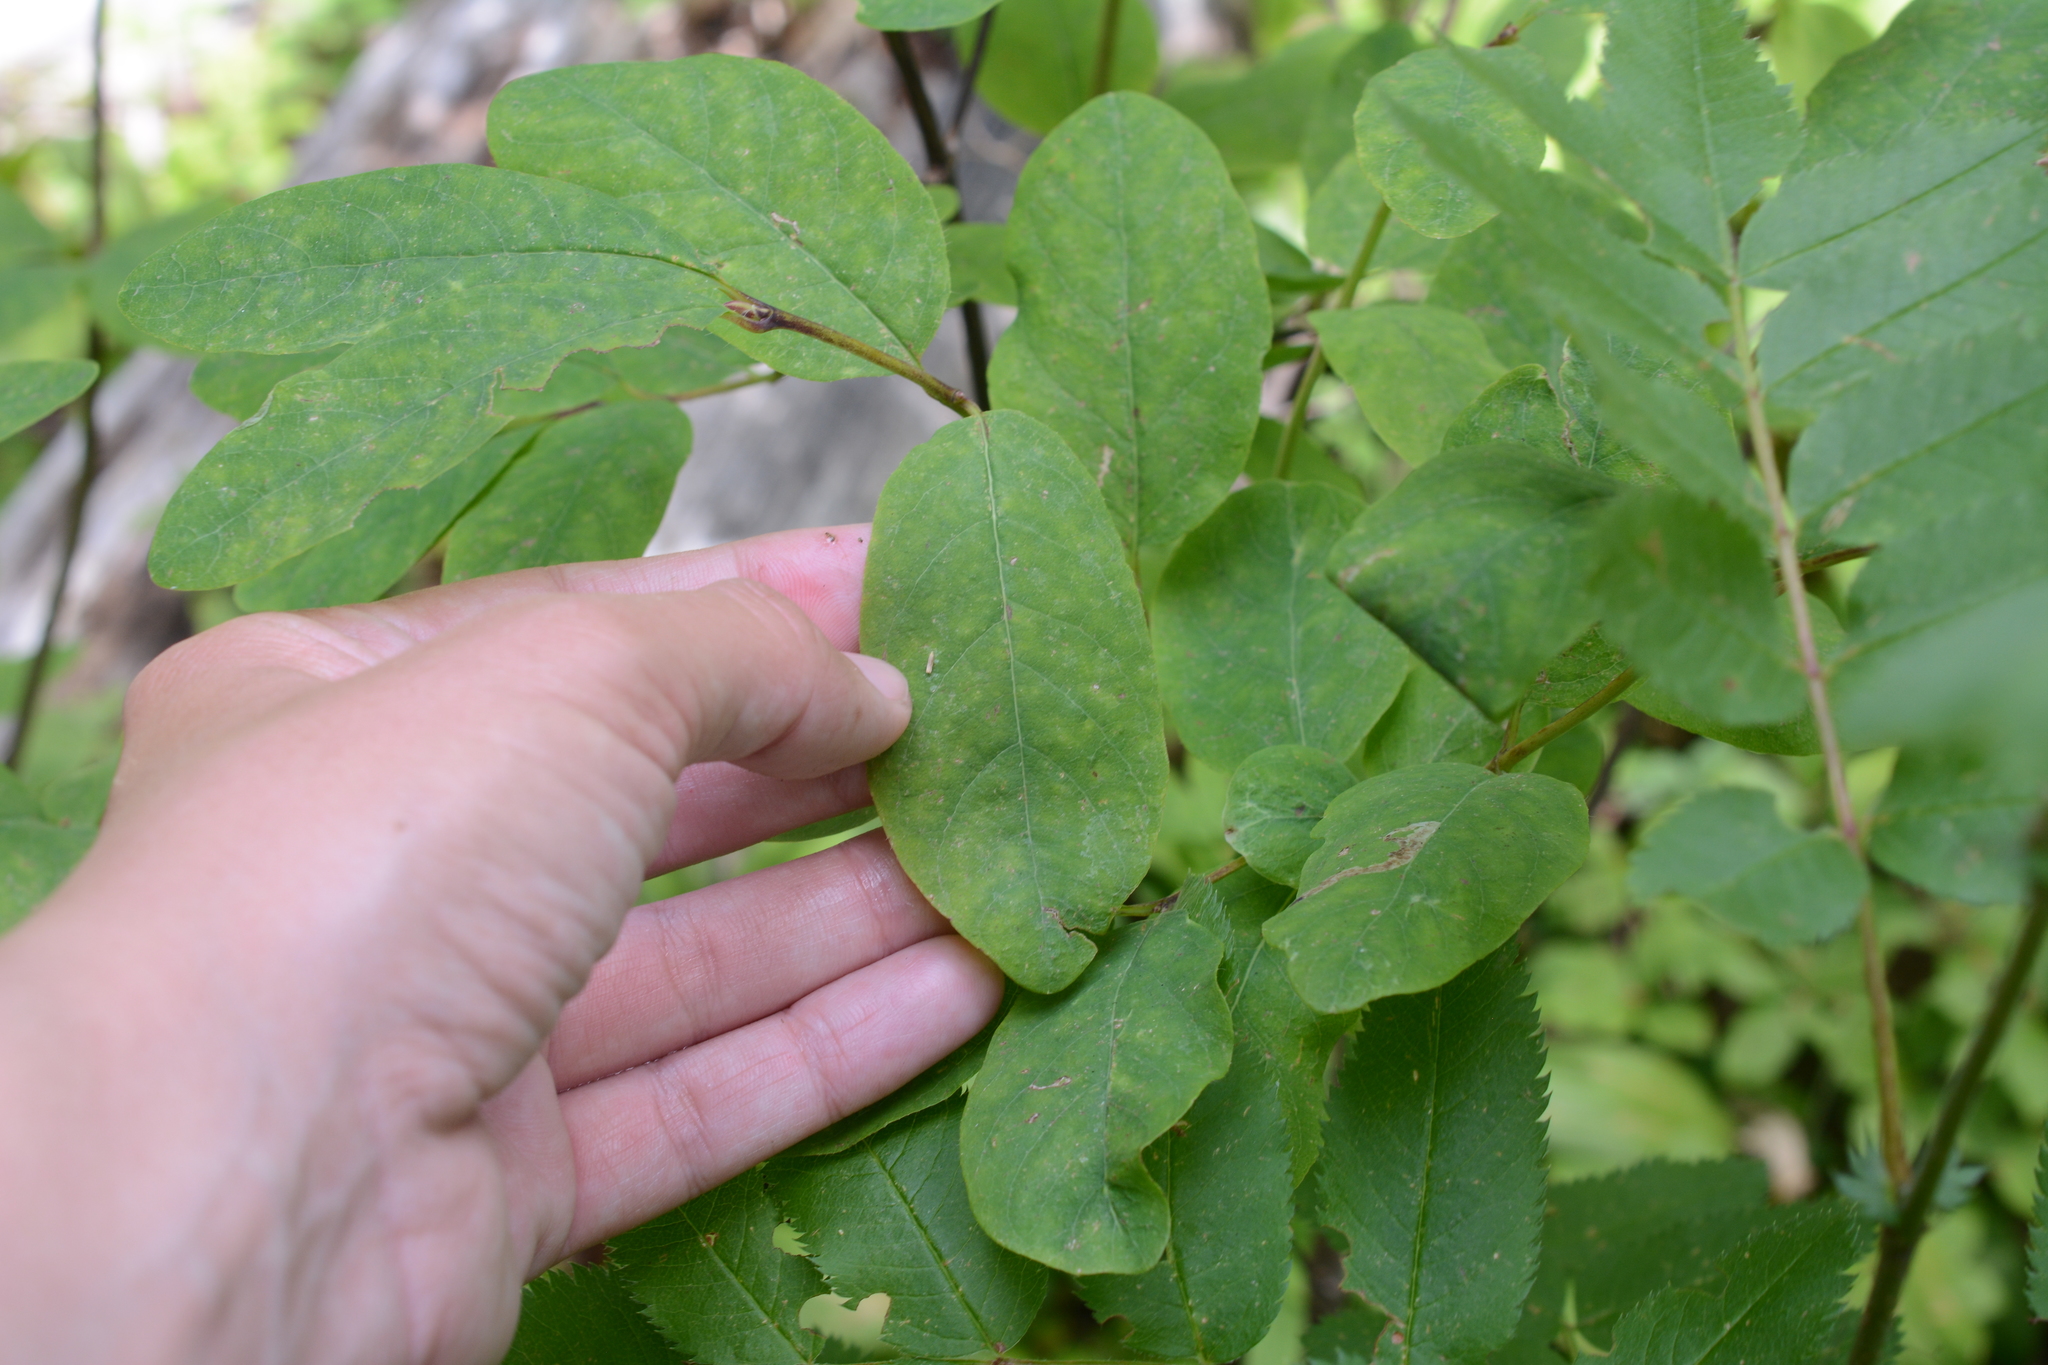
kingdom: Plantae
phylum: Tracheophyta
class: Magnoliopsida
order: Dipsacales
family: Caprifoliaceae
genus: Lonicera
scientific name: Lonicera utahensis
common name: Utah honeysuckle
